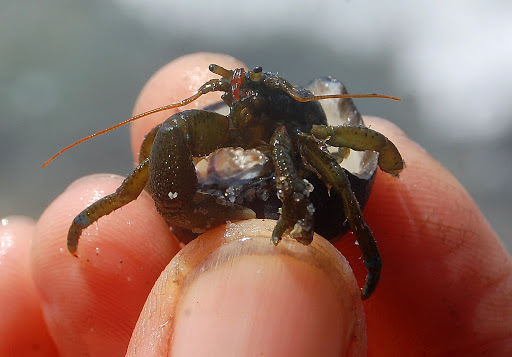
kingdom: Animalia
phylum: Arthropoda
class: Malacostraca
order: Decapoda
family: Paguridae
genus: Pagurus
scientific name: Pagurus samuelis
